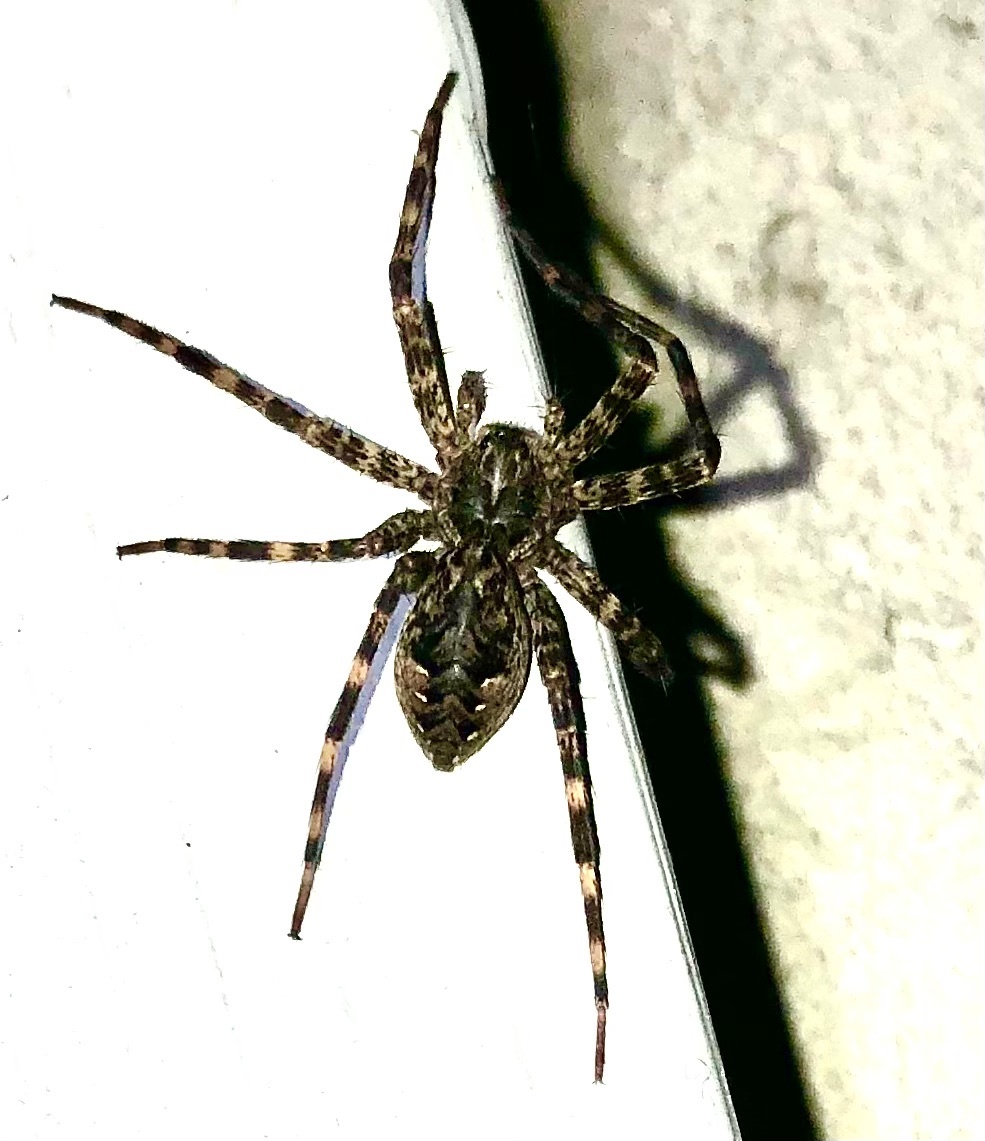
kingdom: Animalia
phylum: Arthropoda
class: Arachnida
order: Araneae
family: Pisauridae
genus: Dolomedes
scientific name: Dolomedes tenebrosus
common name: Dark fishing spider
